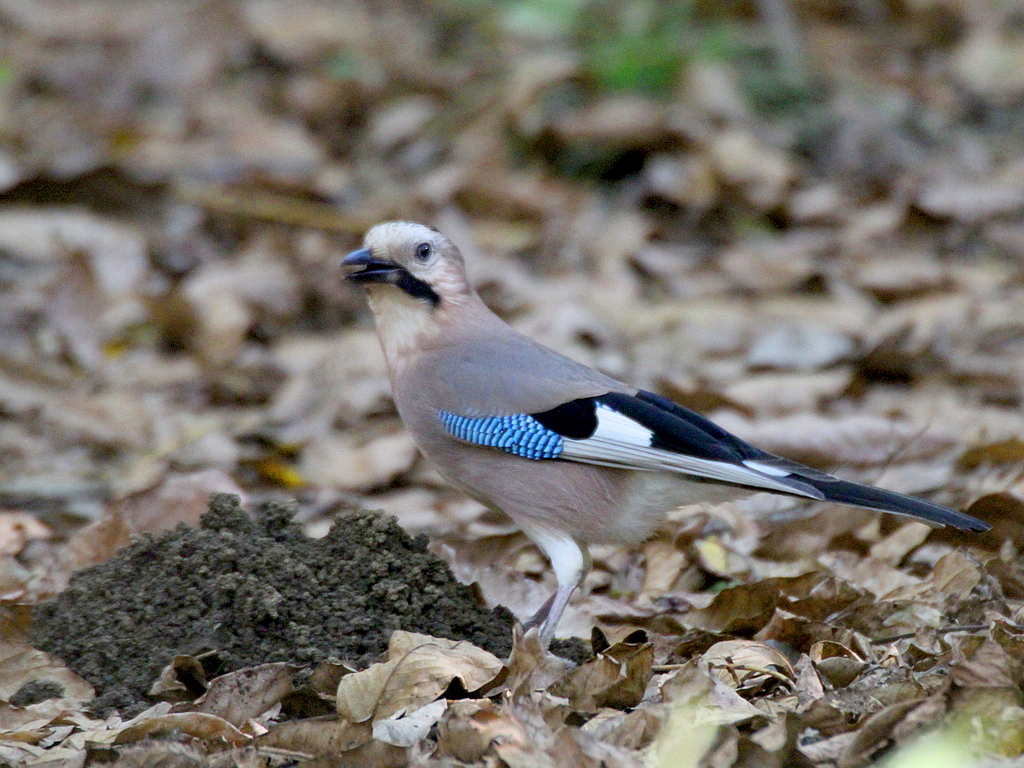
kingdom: Animalia
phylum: Chordata
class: Aves
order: Passeriformes
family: Corvidae
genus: Garrulus
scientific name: Garrulus glandarius
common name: Eurasian jay
